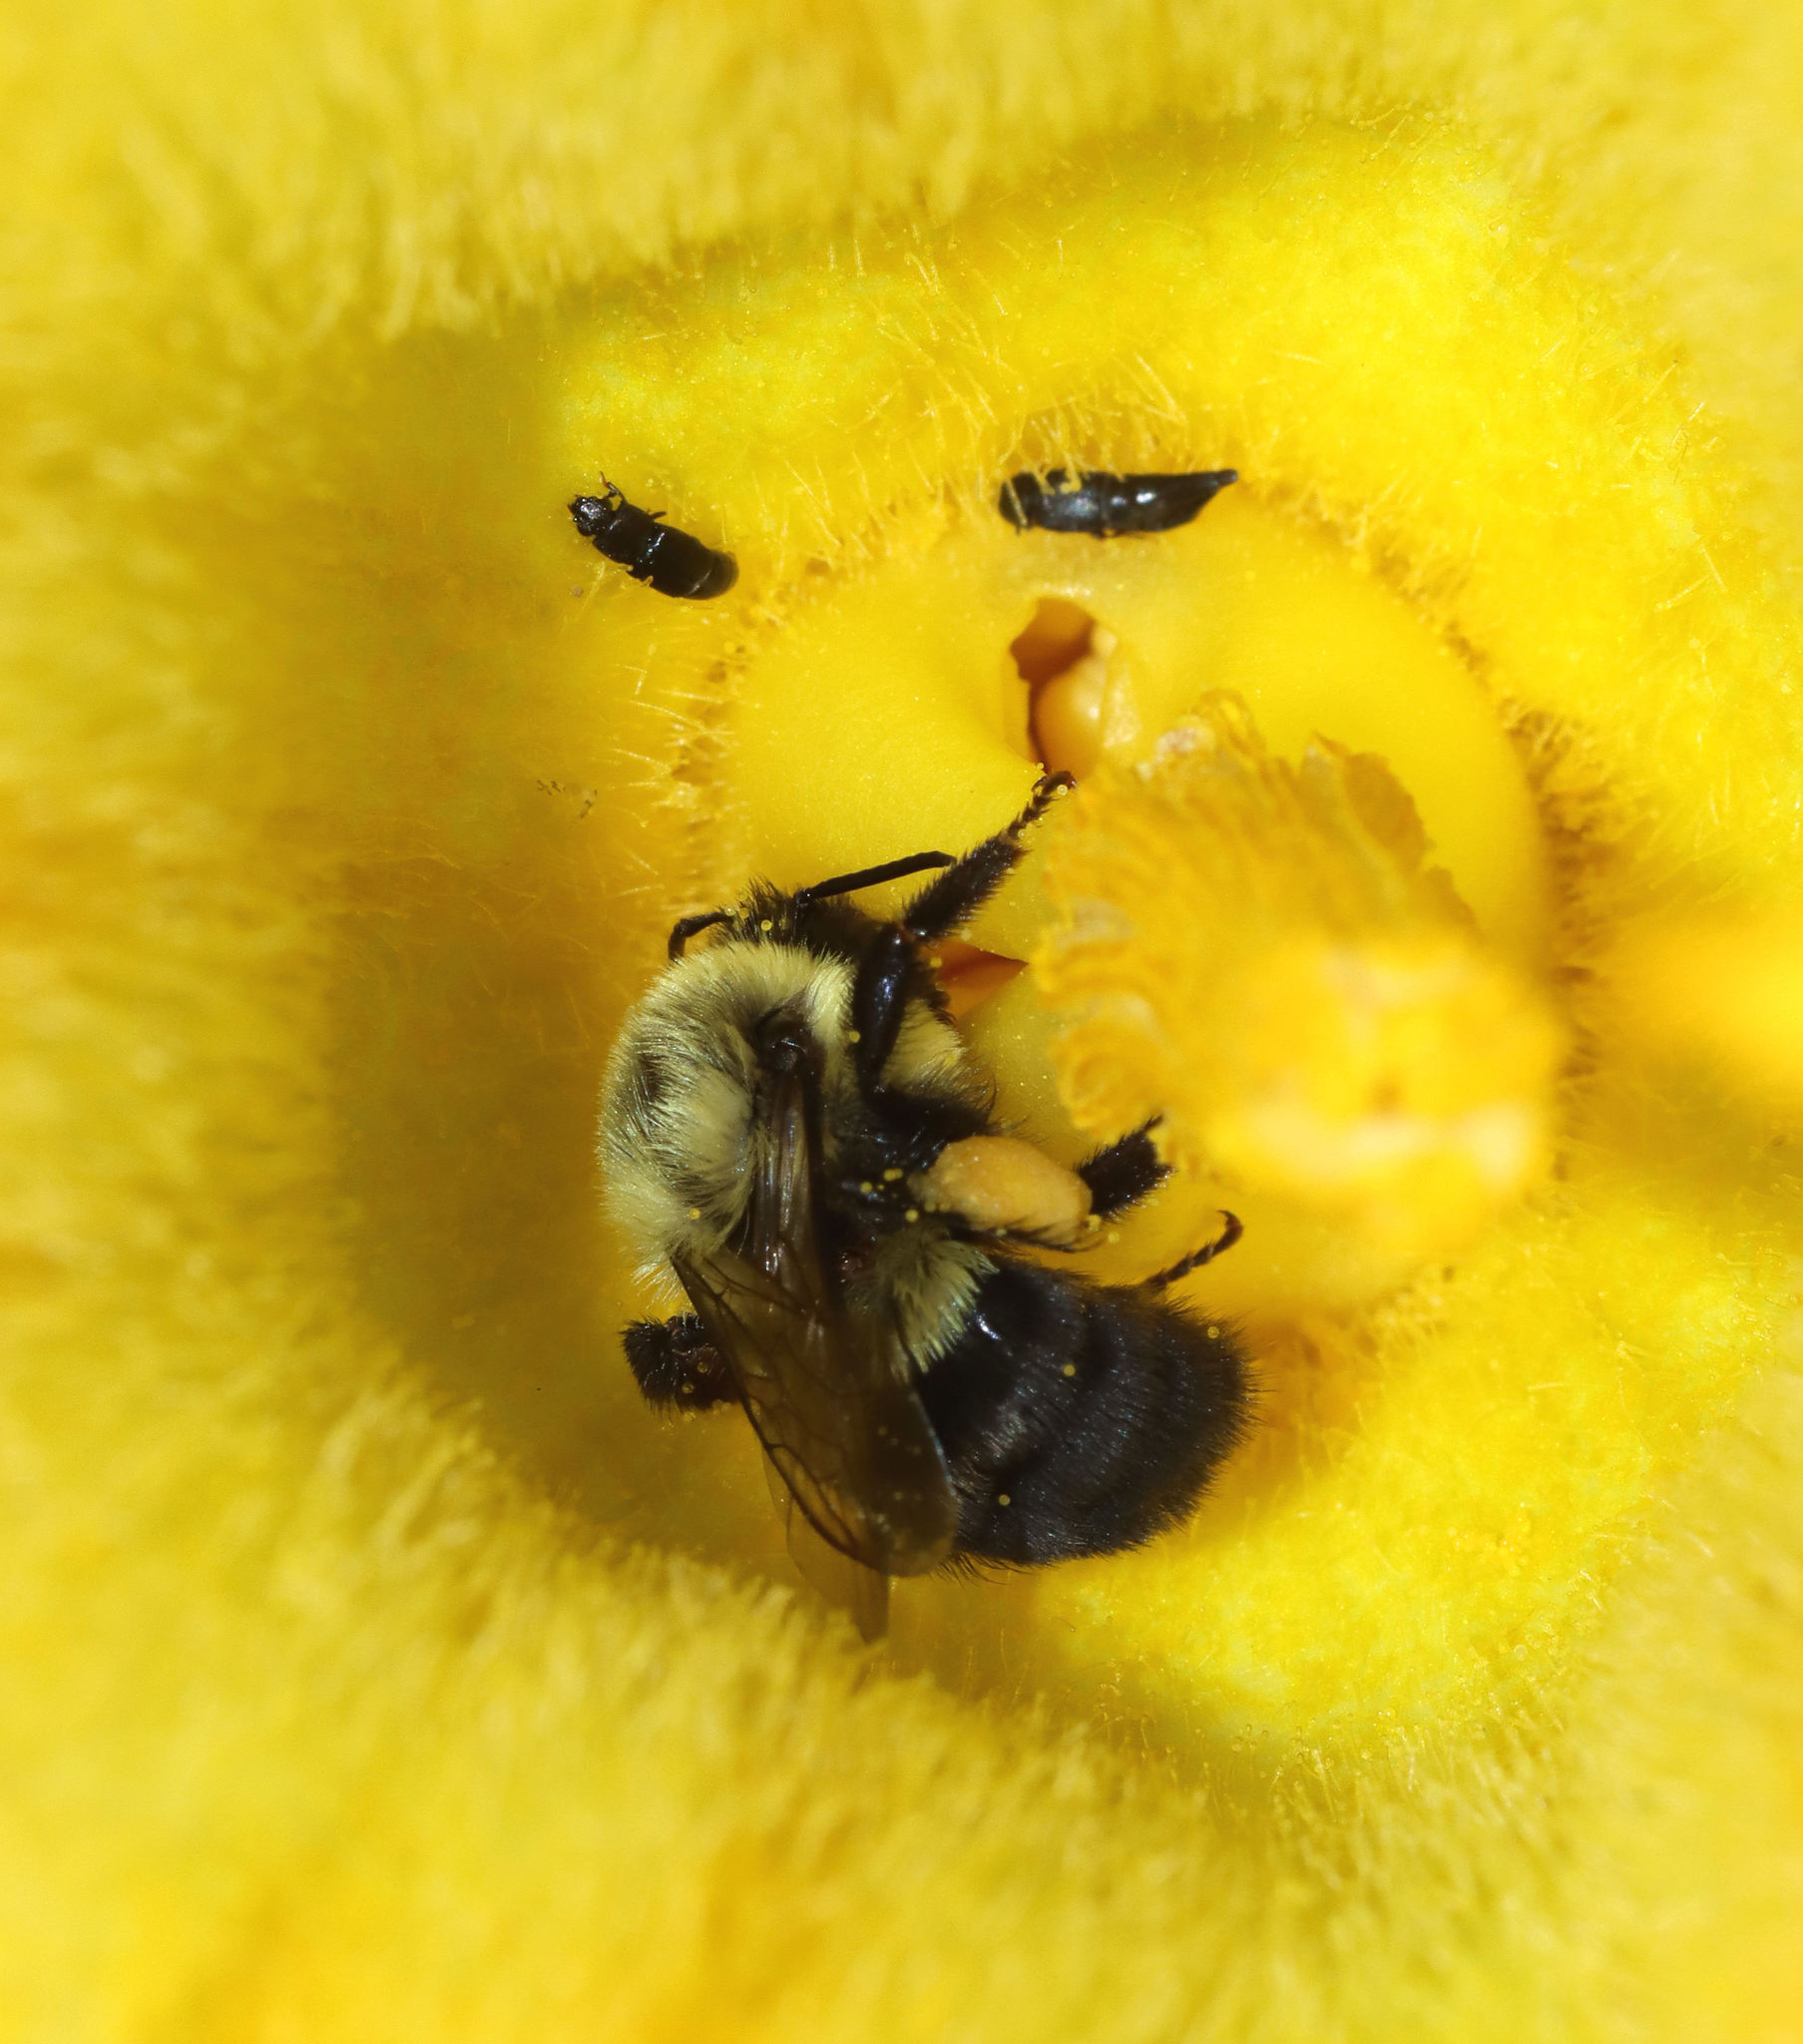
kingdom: Animalia
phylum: Arthropoda
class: Insecta
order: Hymenoptera
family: Apidae
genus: Bombus
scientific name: Bombus impatiens
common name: Common eastern bumble bee
